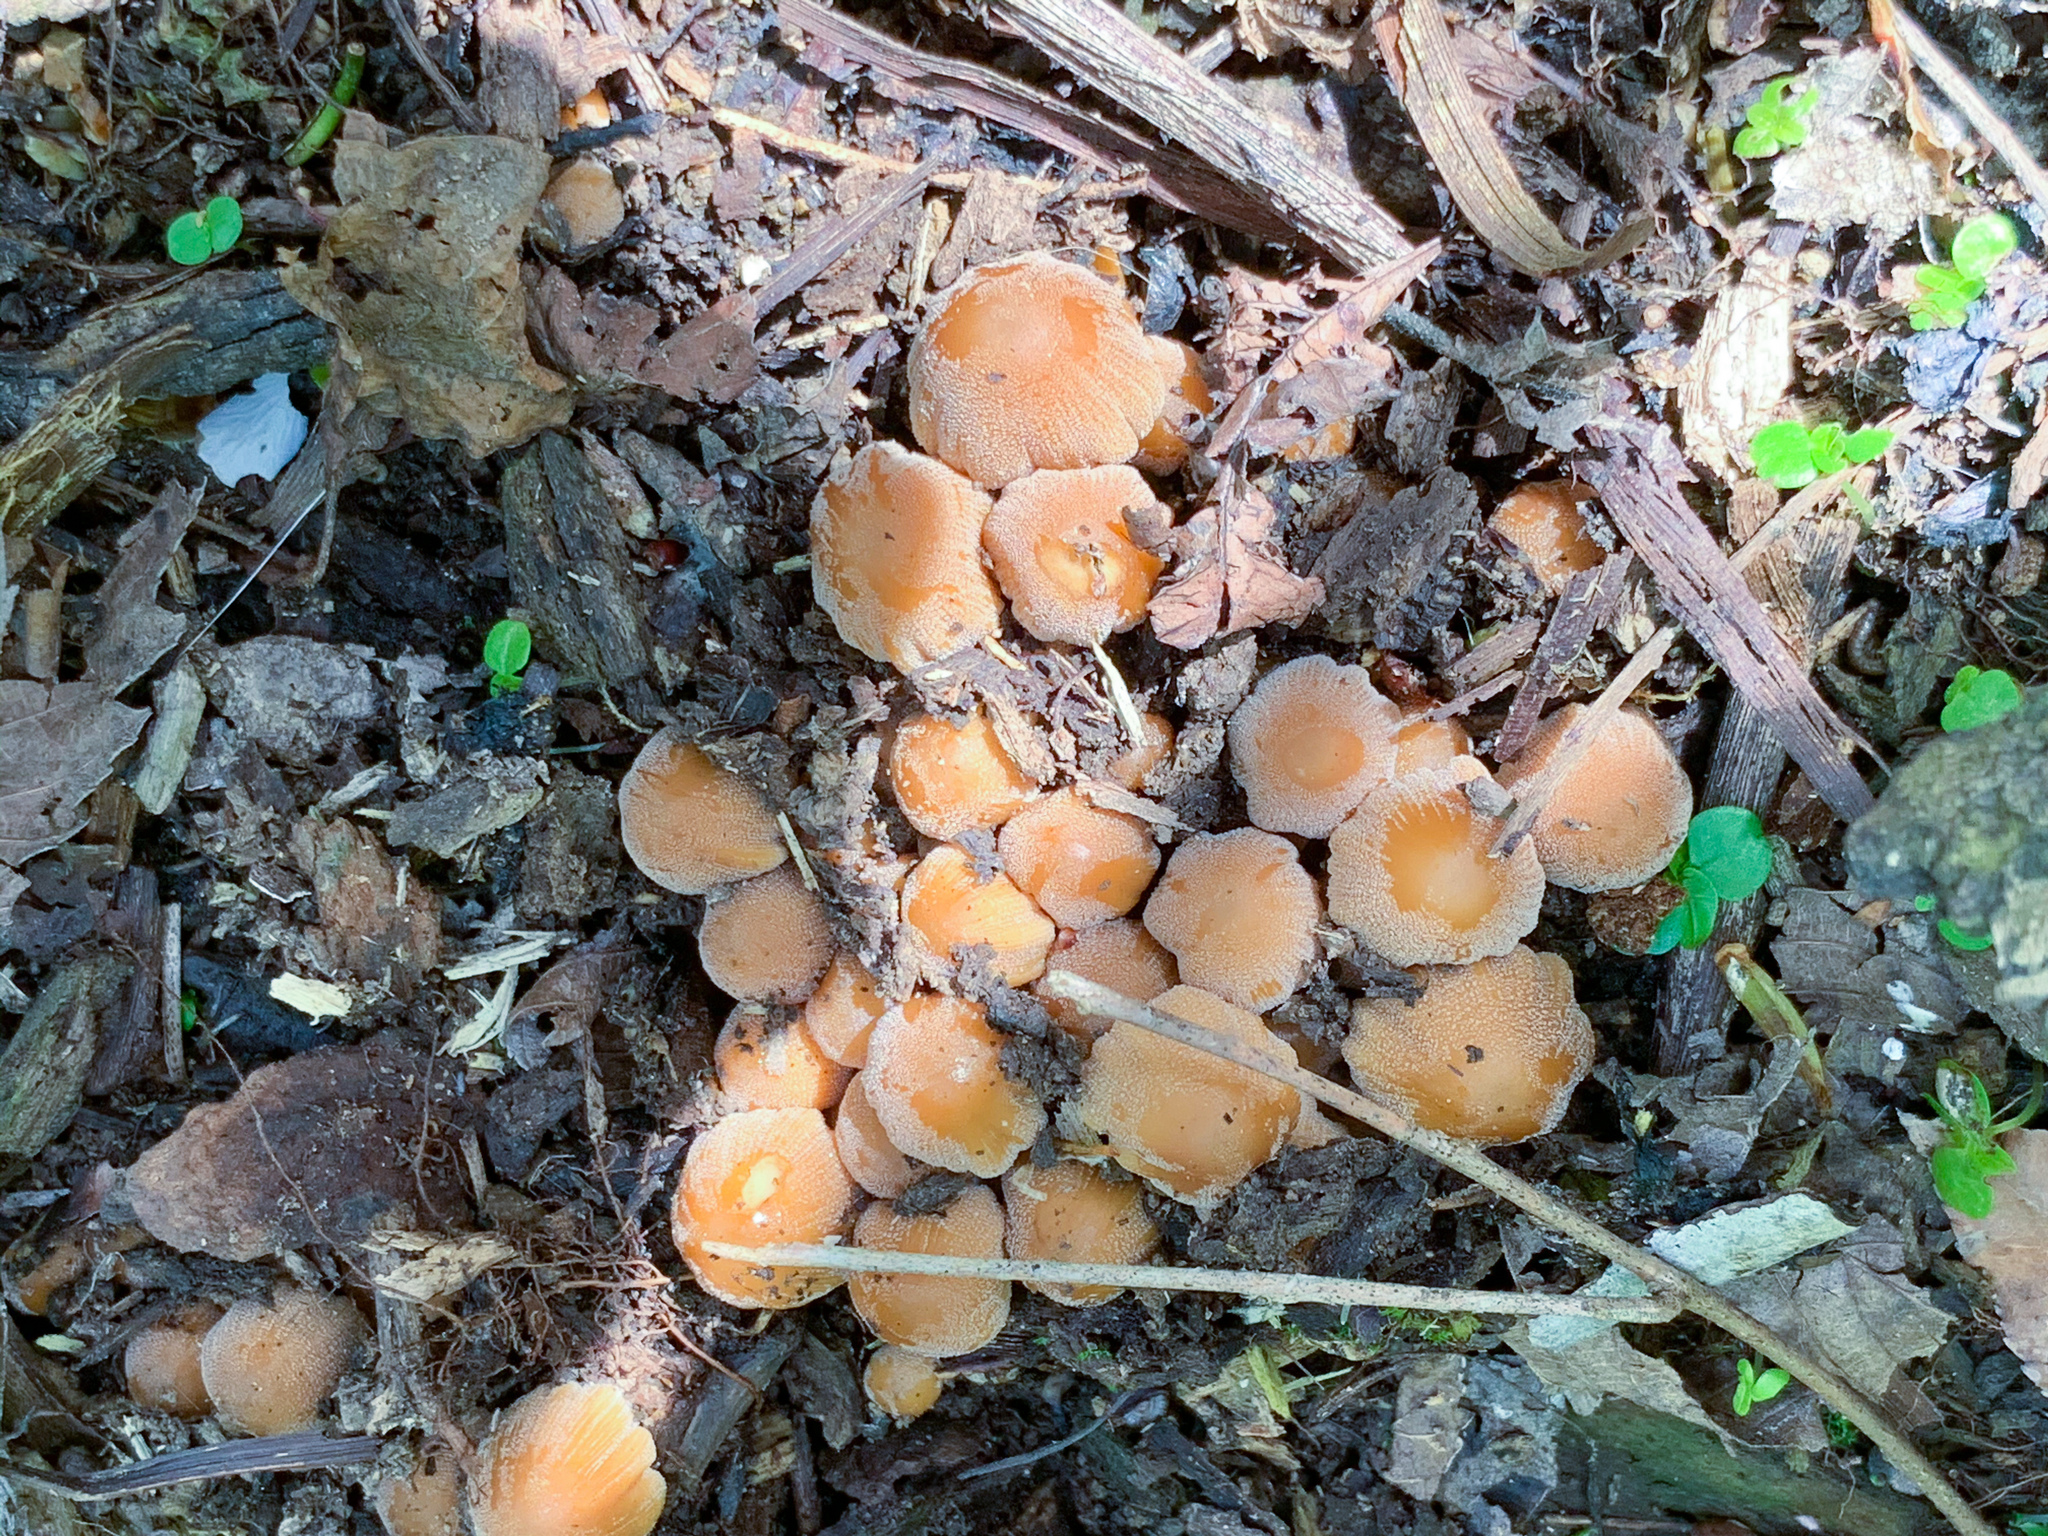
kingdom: Fungi
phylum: Basidiomycota
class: Agaricomycetes
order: Agaricales
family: Psathyrellaceae
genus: Coprinellus
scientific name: Coprinellus micaceus
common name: Glistening ink-cap
